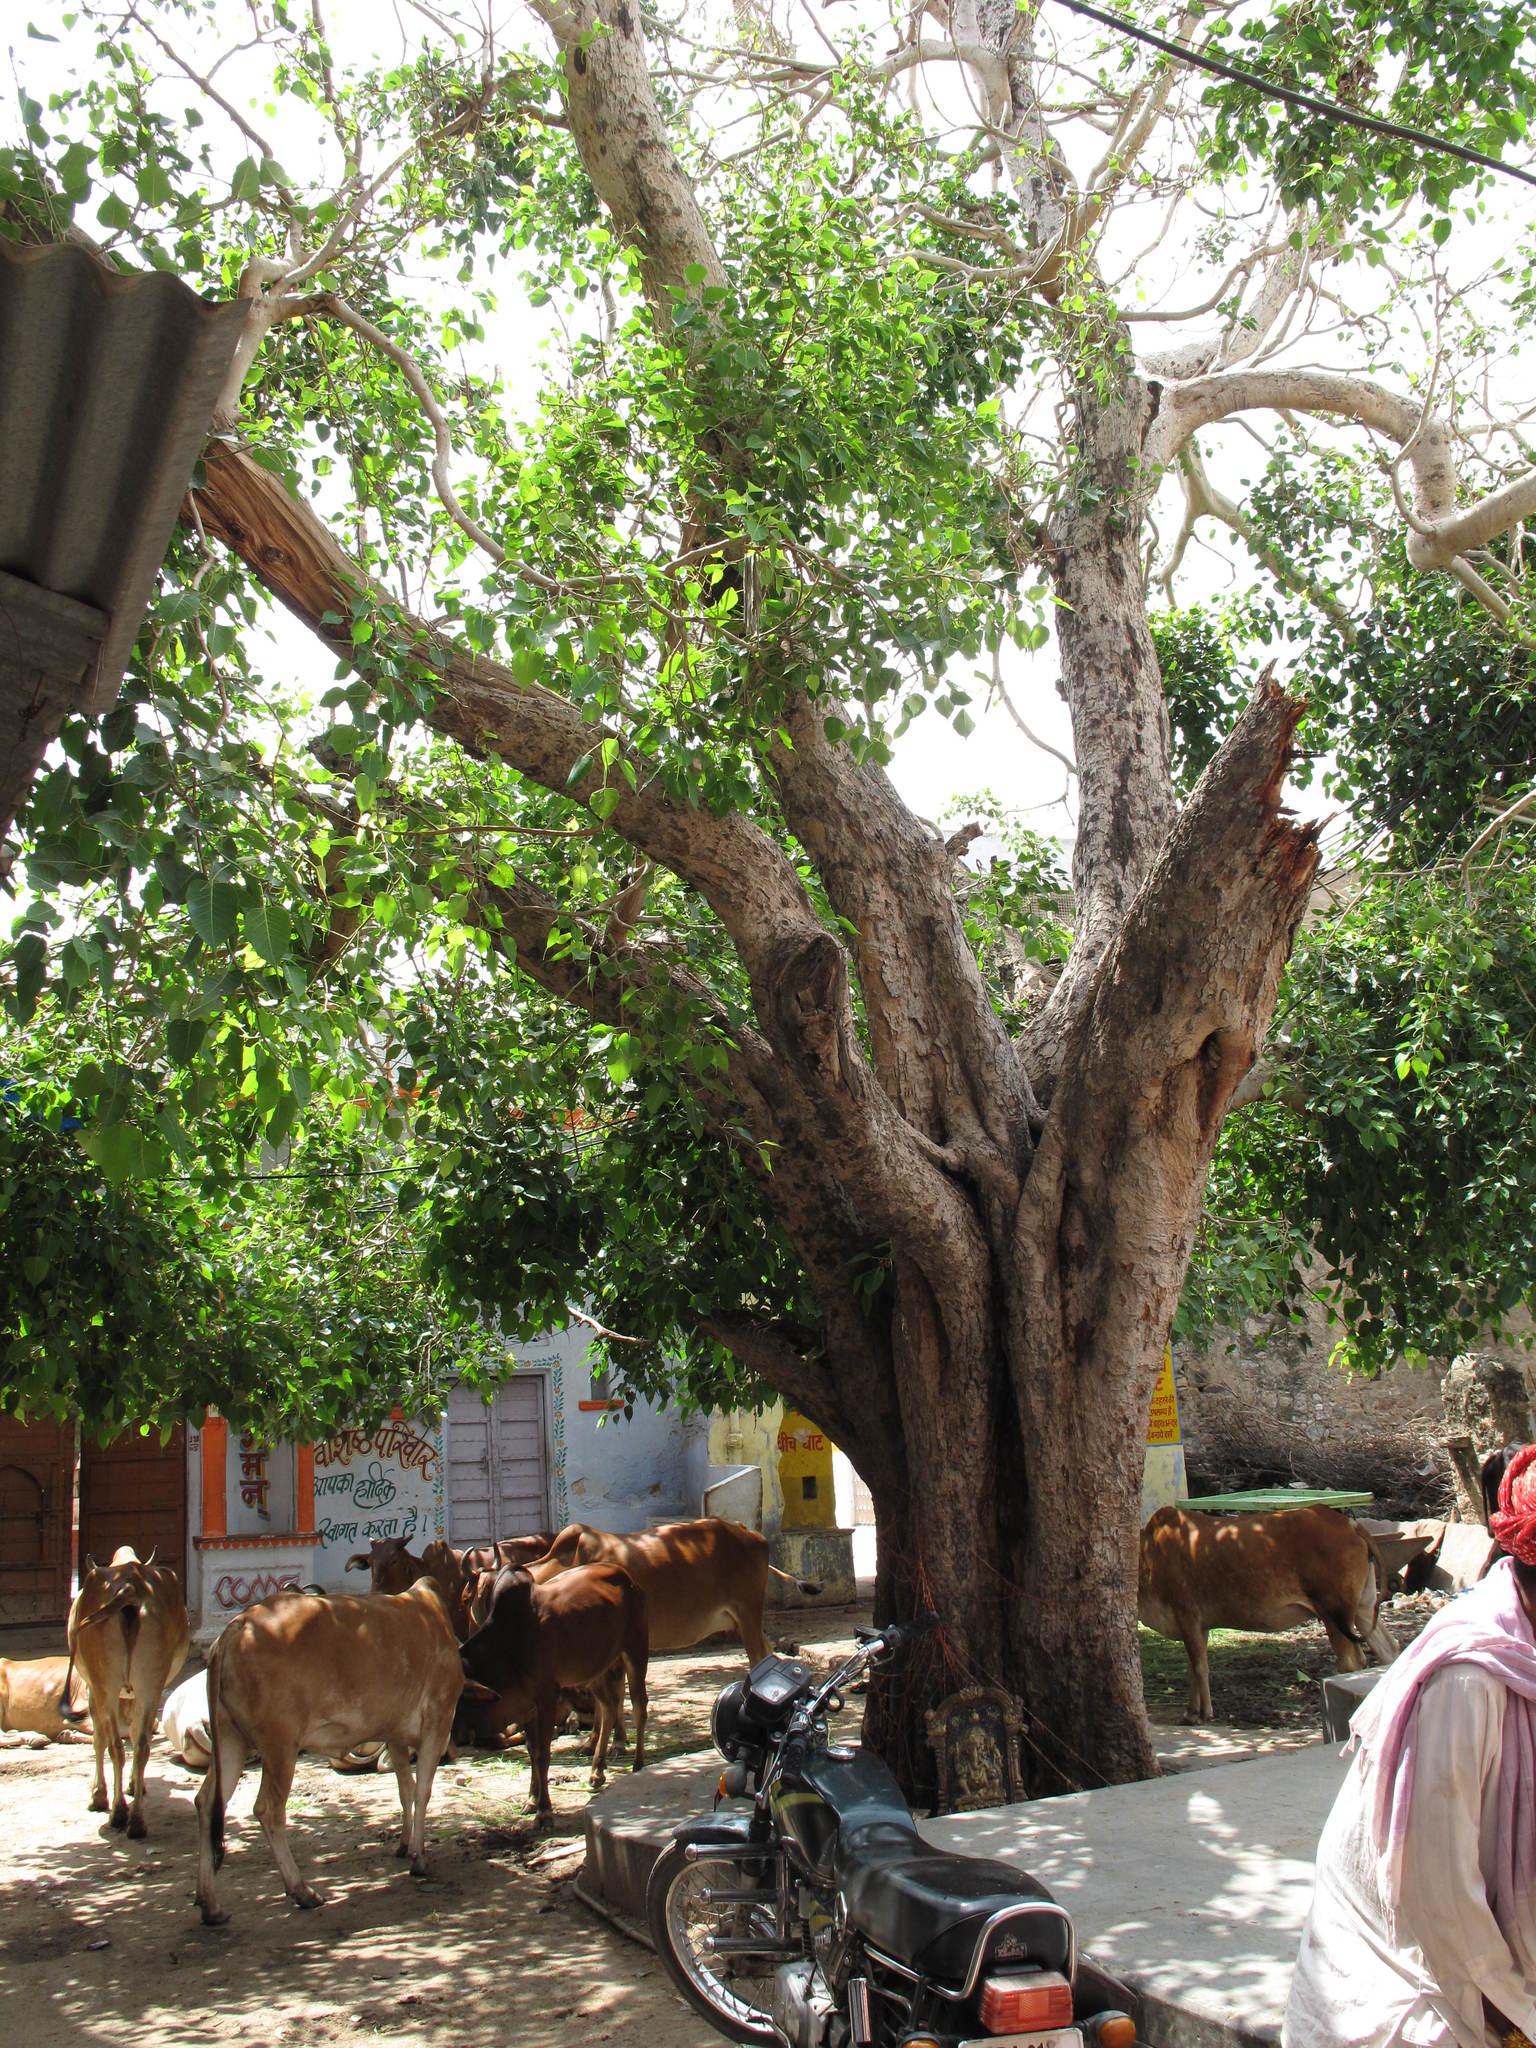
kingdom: Plantae
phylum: Tracheophyta
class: Magnoliopsida
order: Rosales
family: Moraceae
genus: Ficus
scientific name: Ficus religiosa
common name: Bodhi tree
